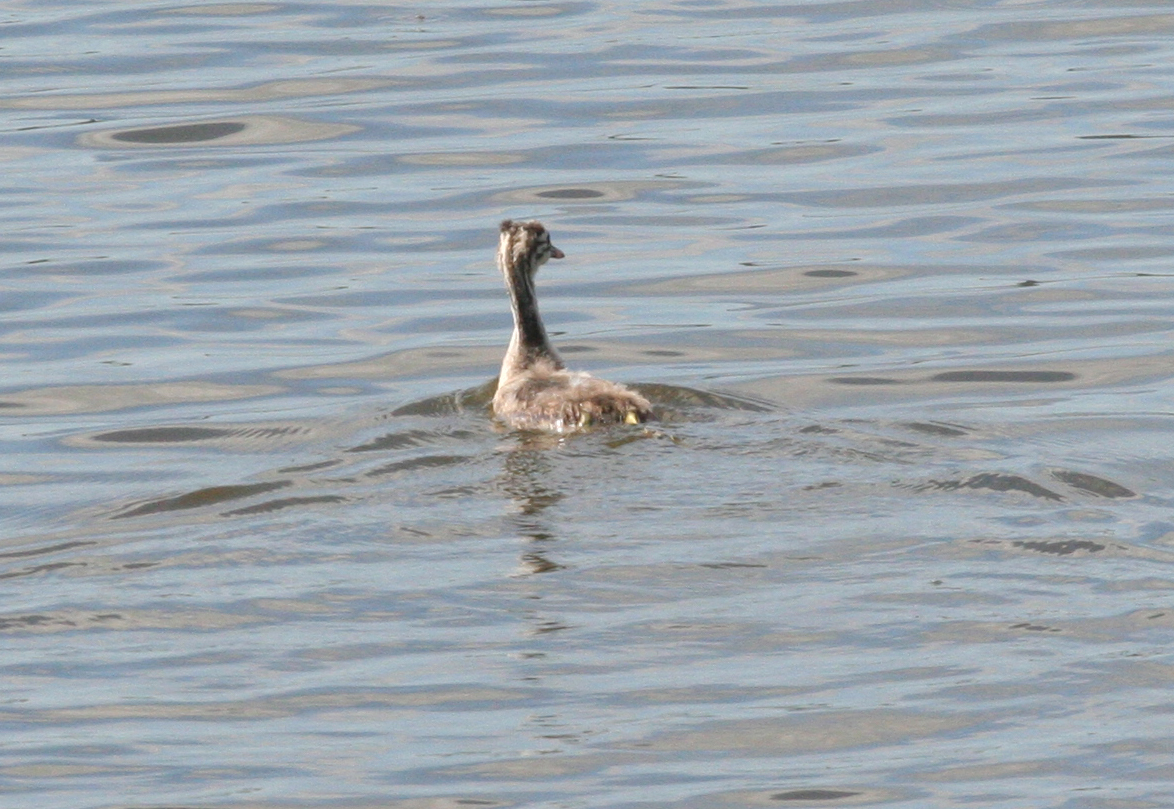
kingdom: Animalia
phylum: Chordata
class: Aves
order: Podicipediformes
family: Podicipedidae
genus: Podiceps
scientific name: Podiceps cristatus
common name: Great crested grebe
